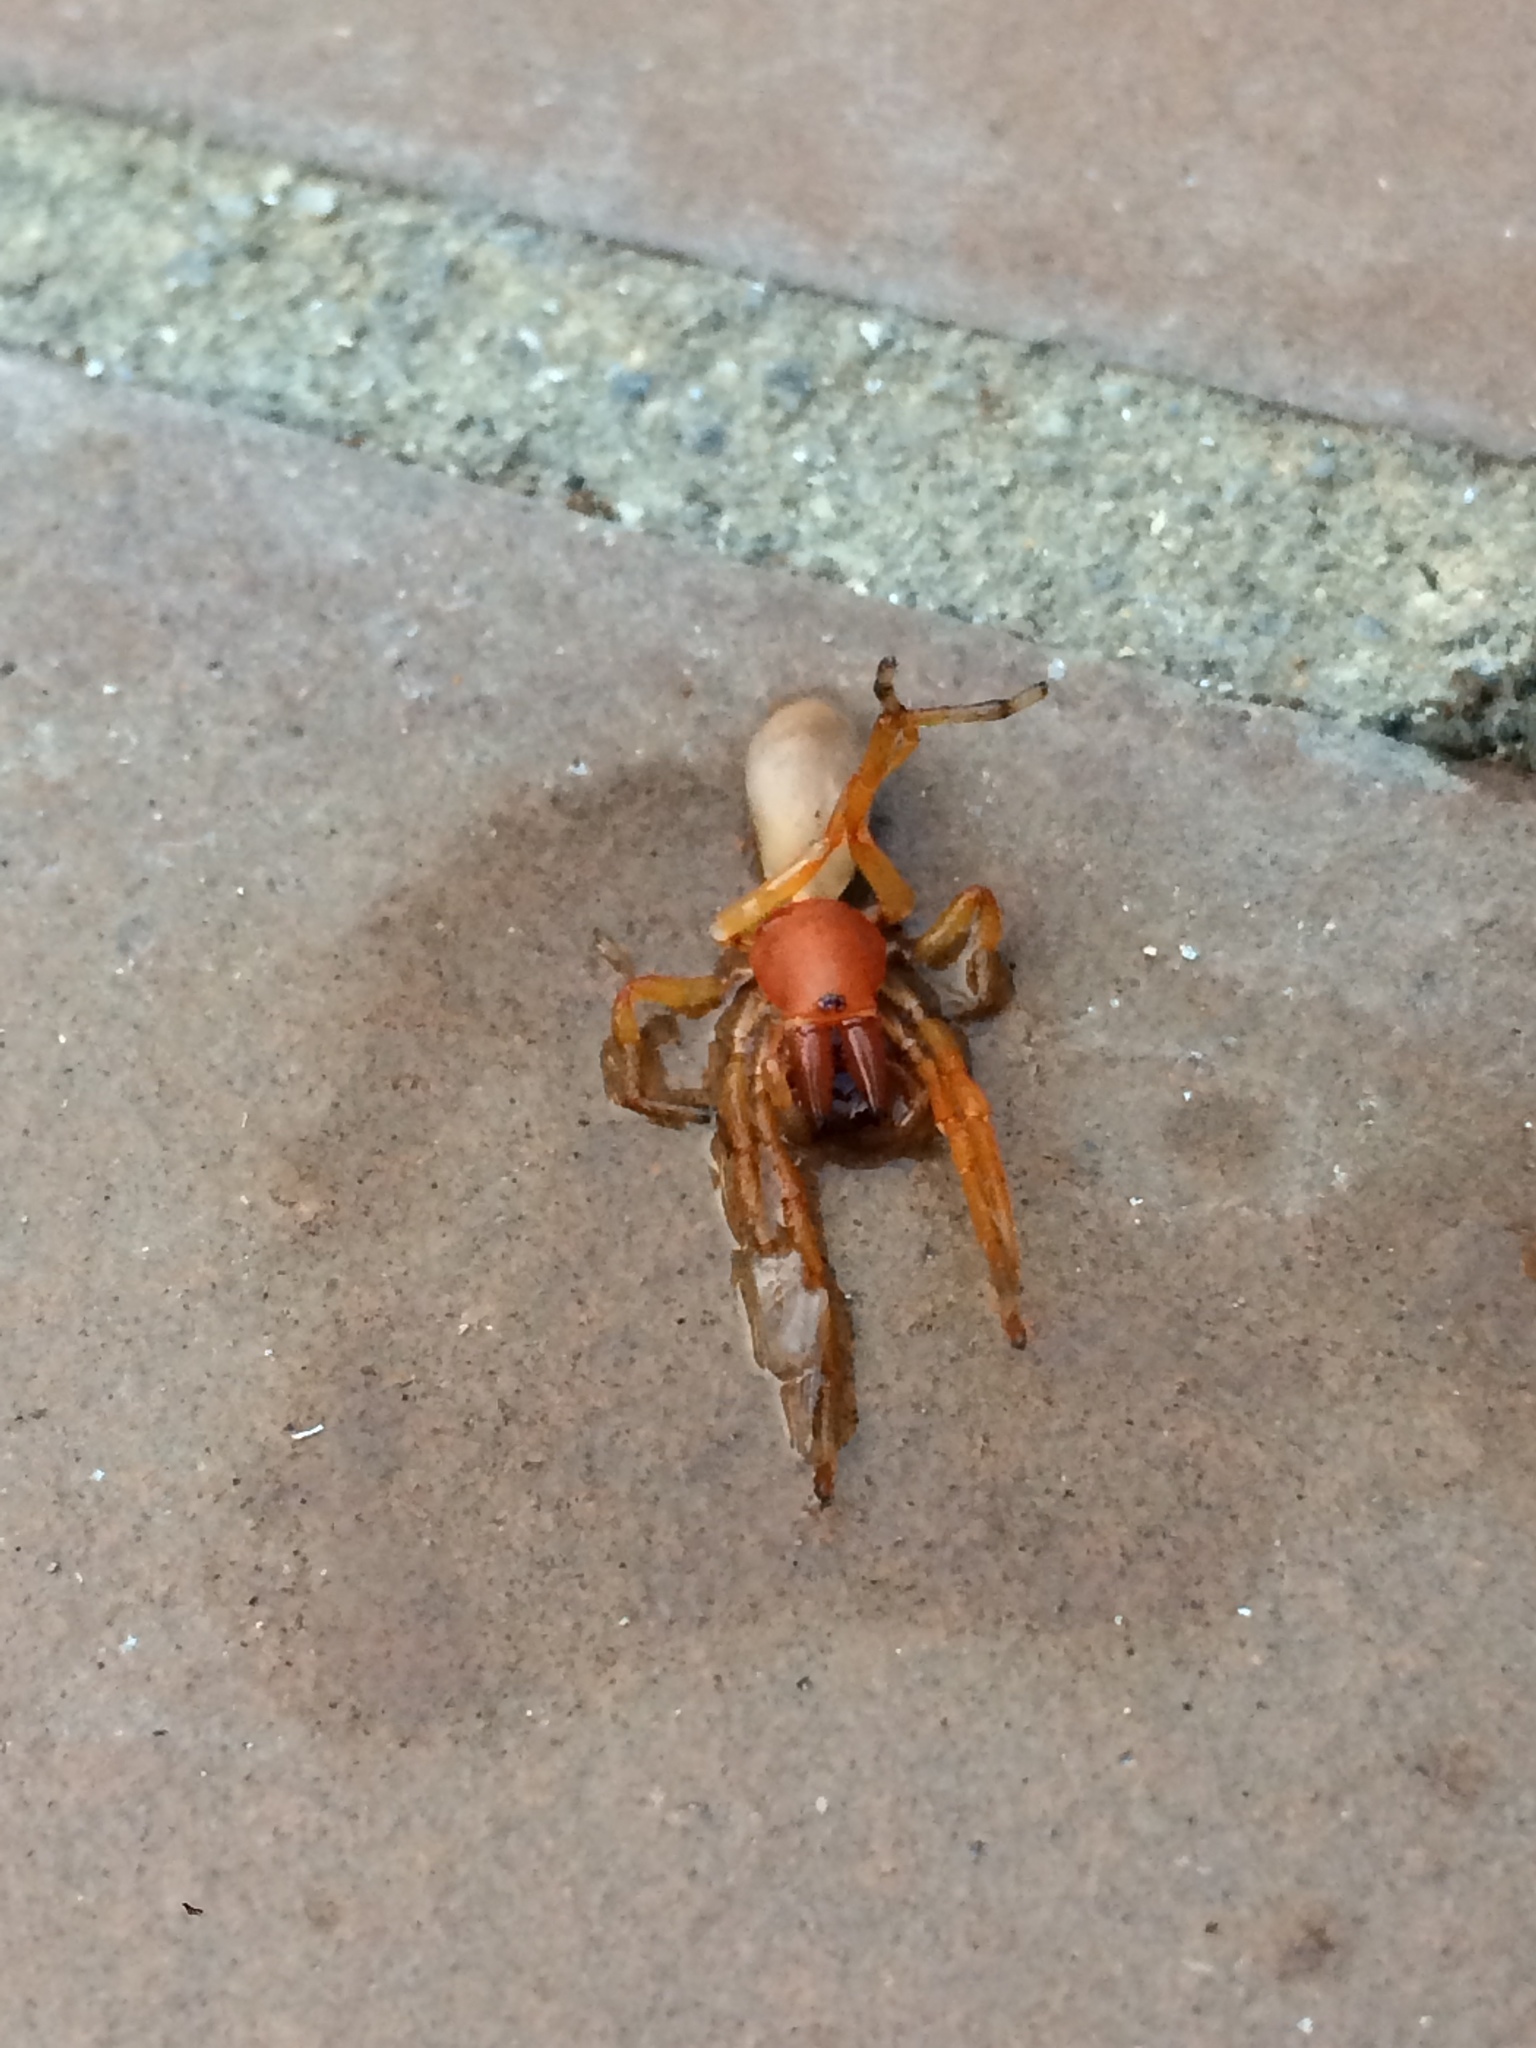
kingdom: Animalia
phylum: Arthropoda
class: Arachnida
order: Araneae
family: Dysderidae
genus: Dysdera
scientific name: Dysdera crocata
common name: Woodlouse spider
